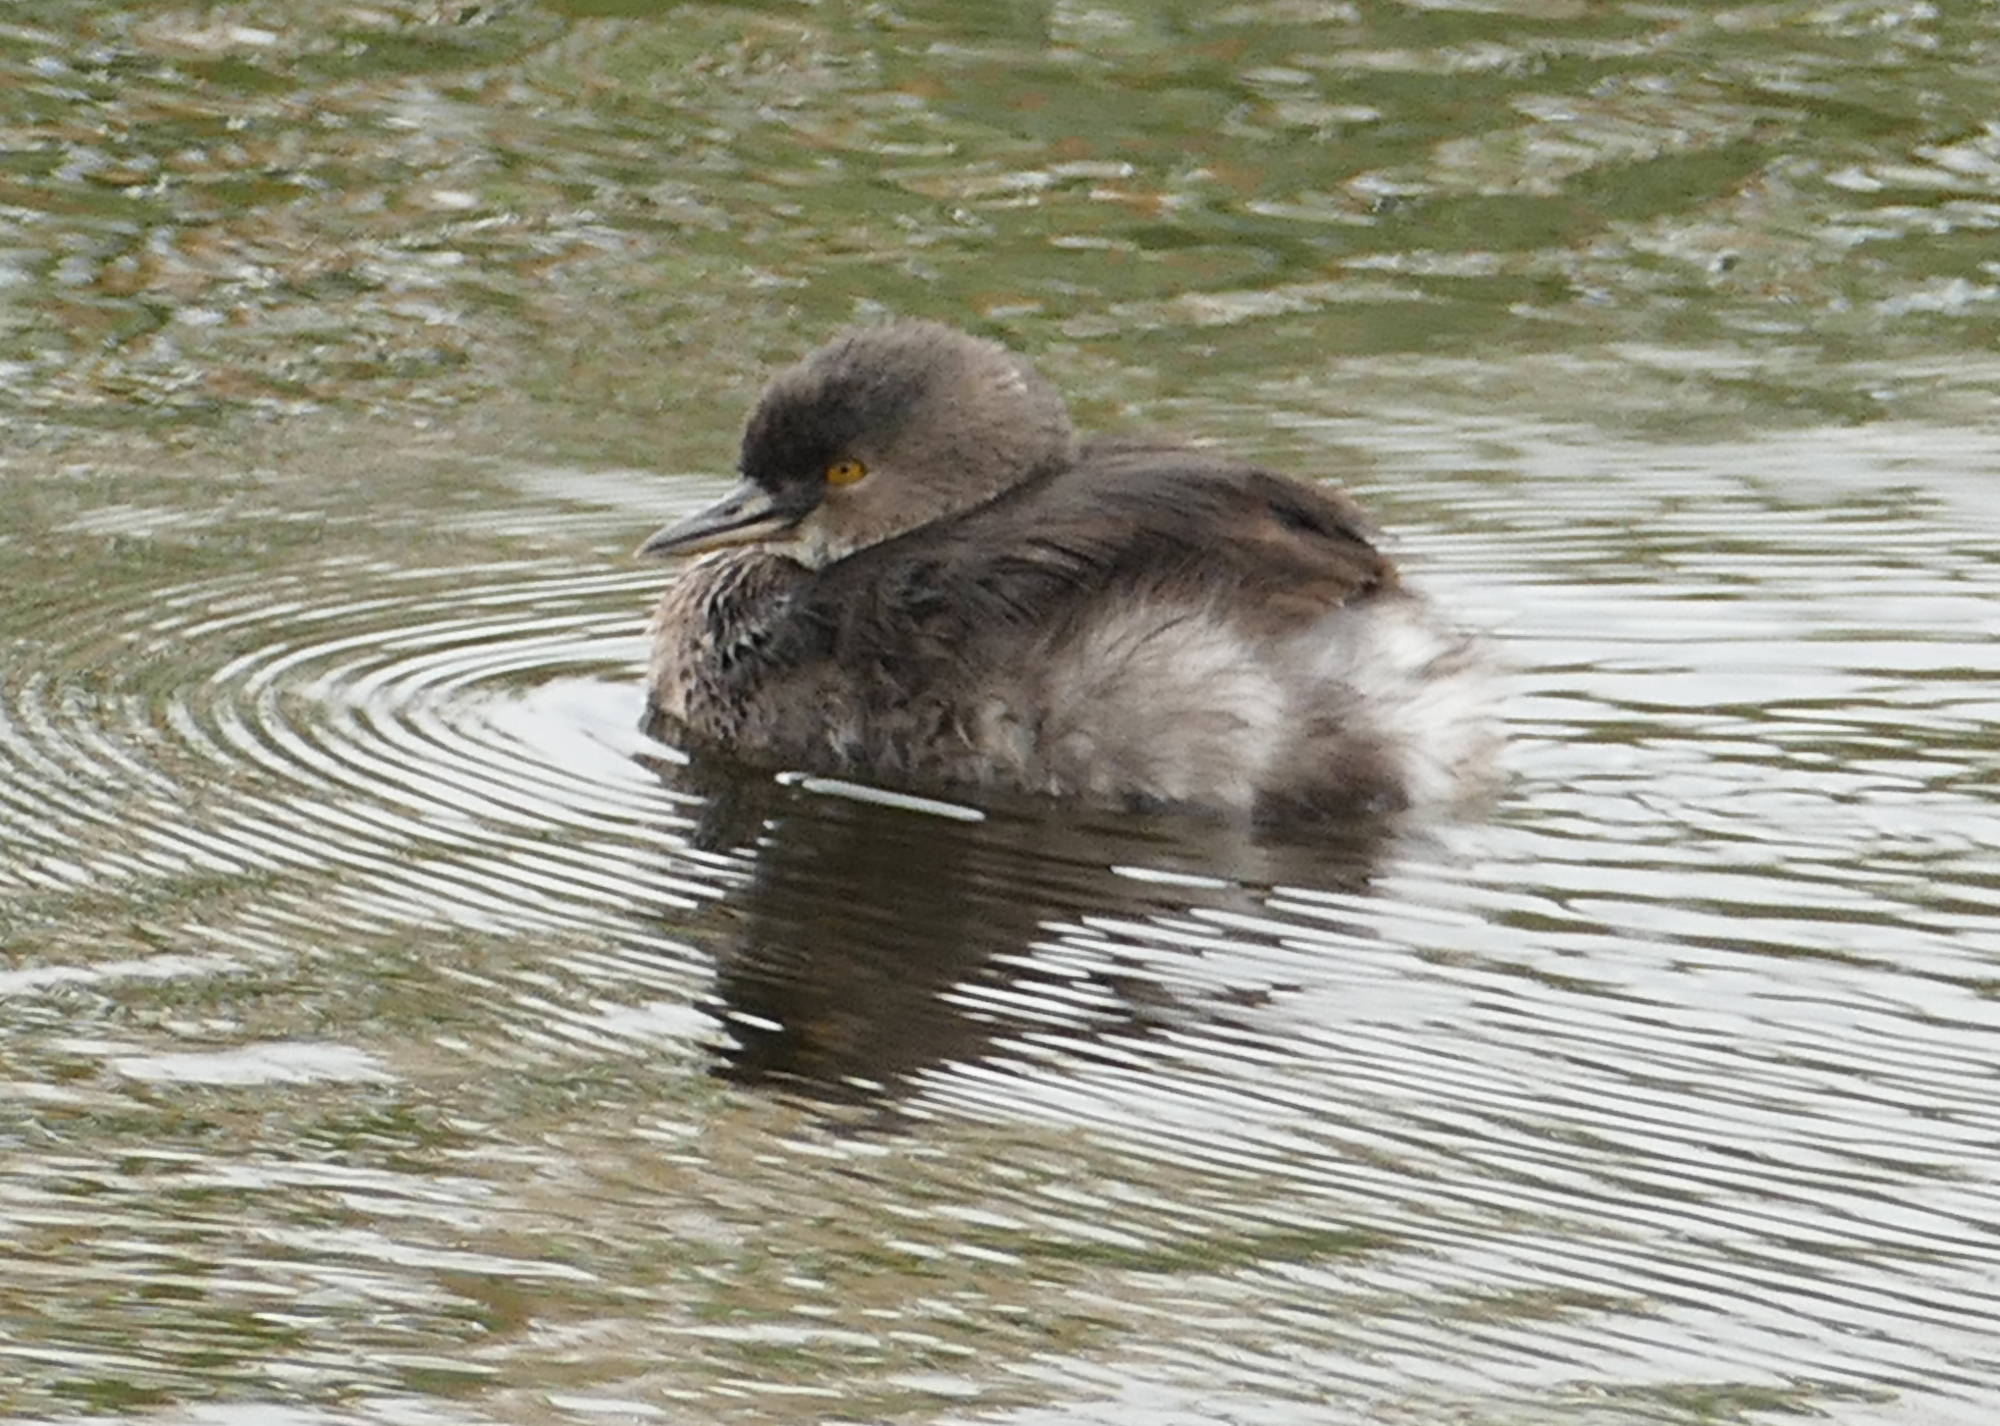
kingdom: Animalia
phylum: Chordata
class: Aves
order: Podicipediformes
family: Podicipedidae
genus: Tachybaptus
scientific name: Tachybaptus dominicus
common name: Least grebe
